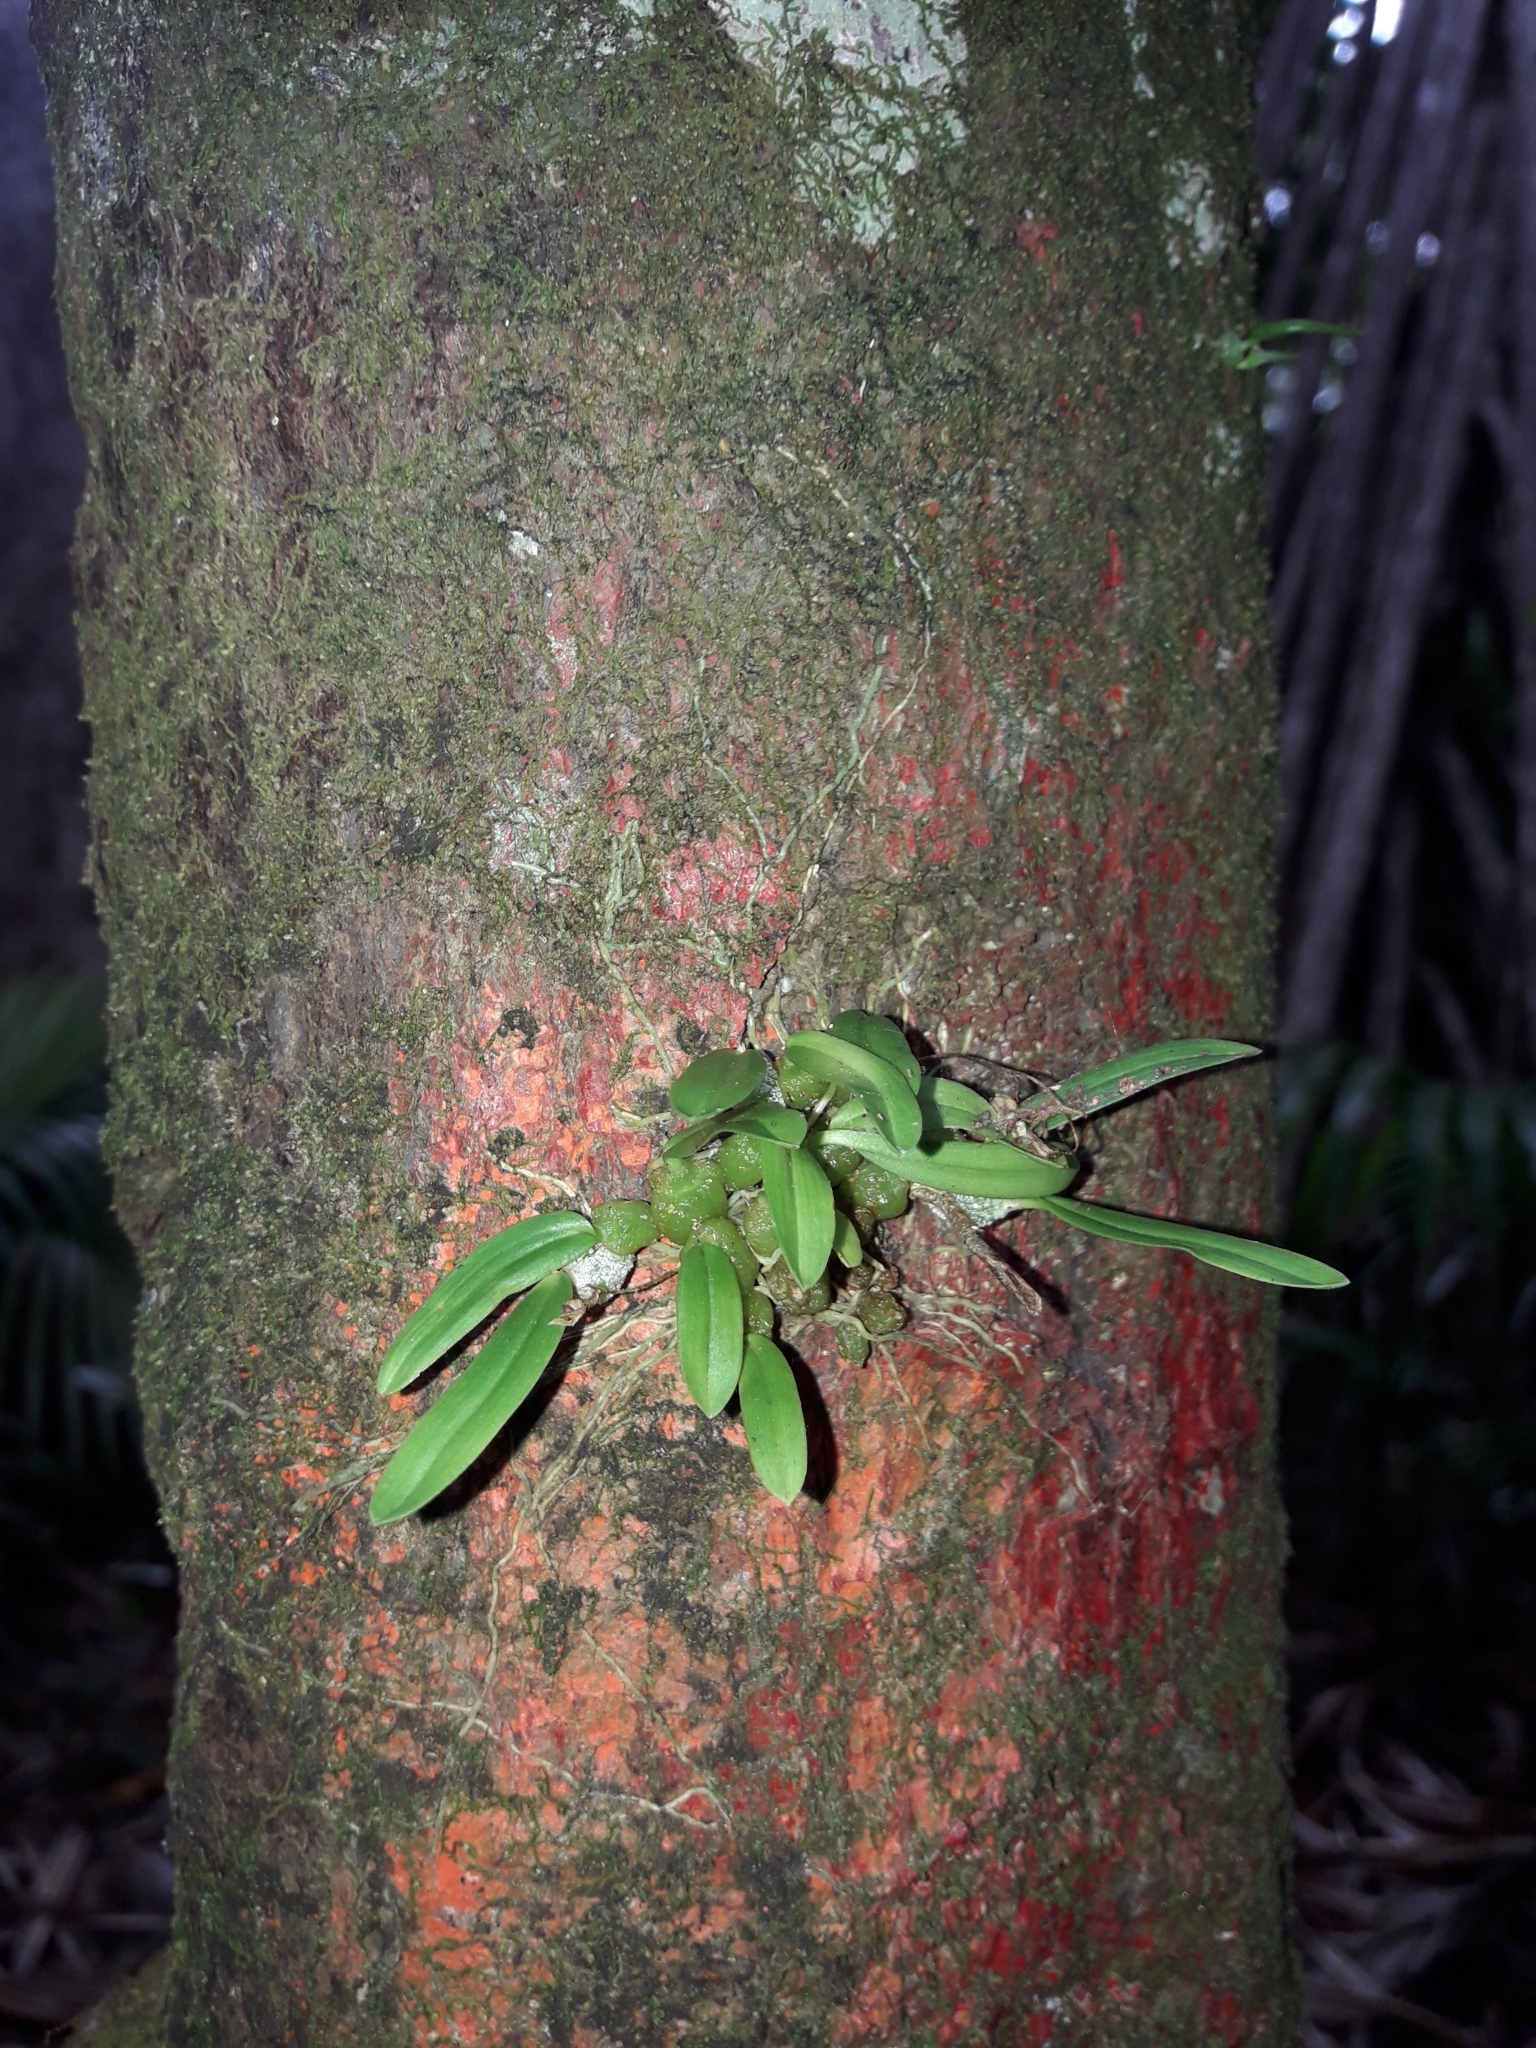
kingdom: Plantae
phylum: Tracheophyta
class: Liliopsida
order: Asparagales
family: Orchidaceae
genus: Bulbophyllum
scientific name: Bulbophyllum argyropus
